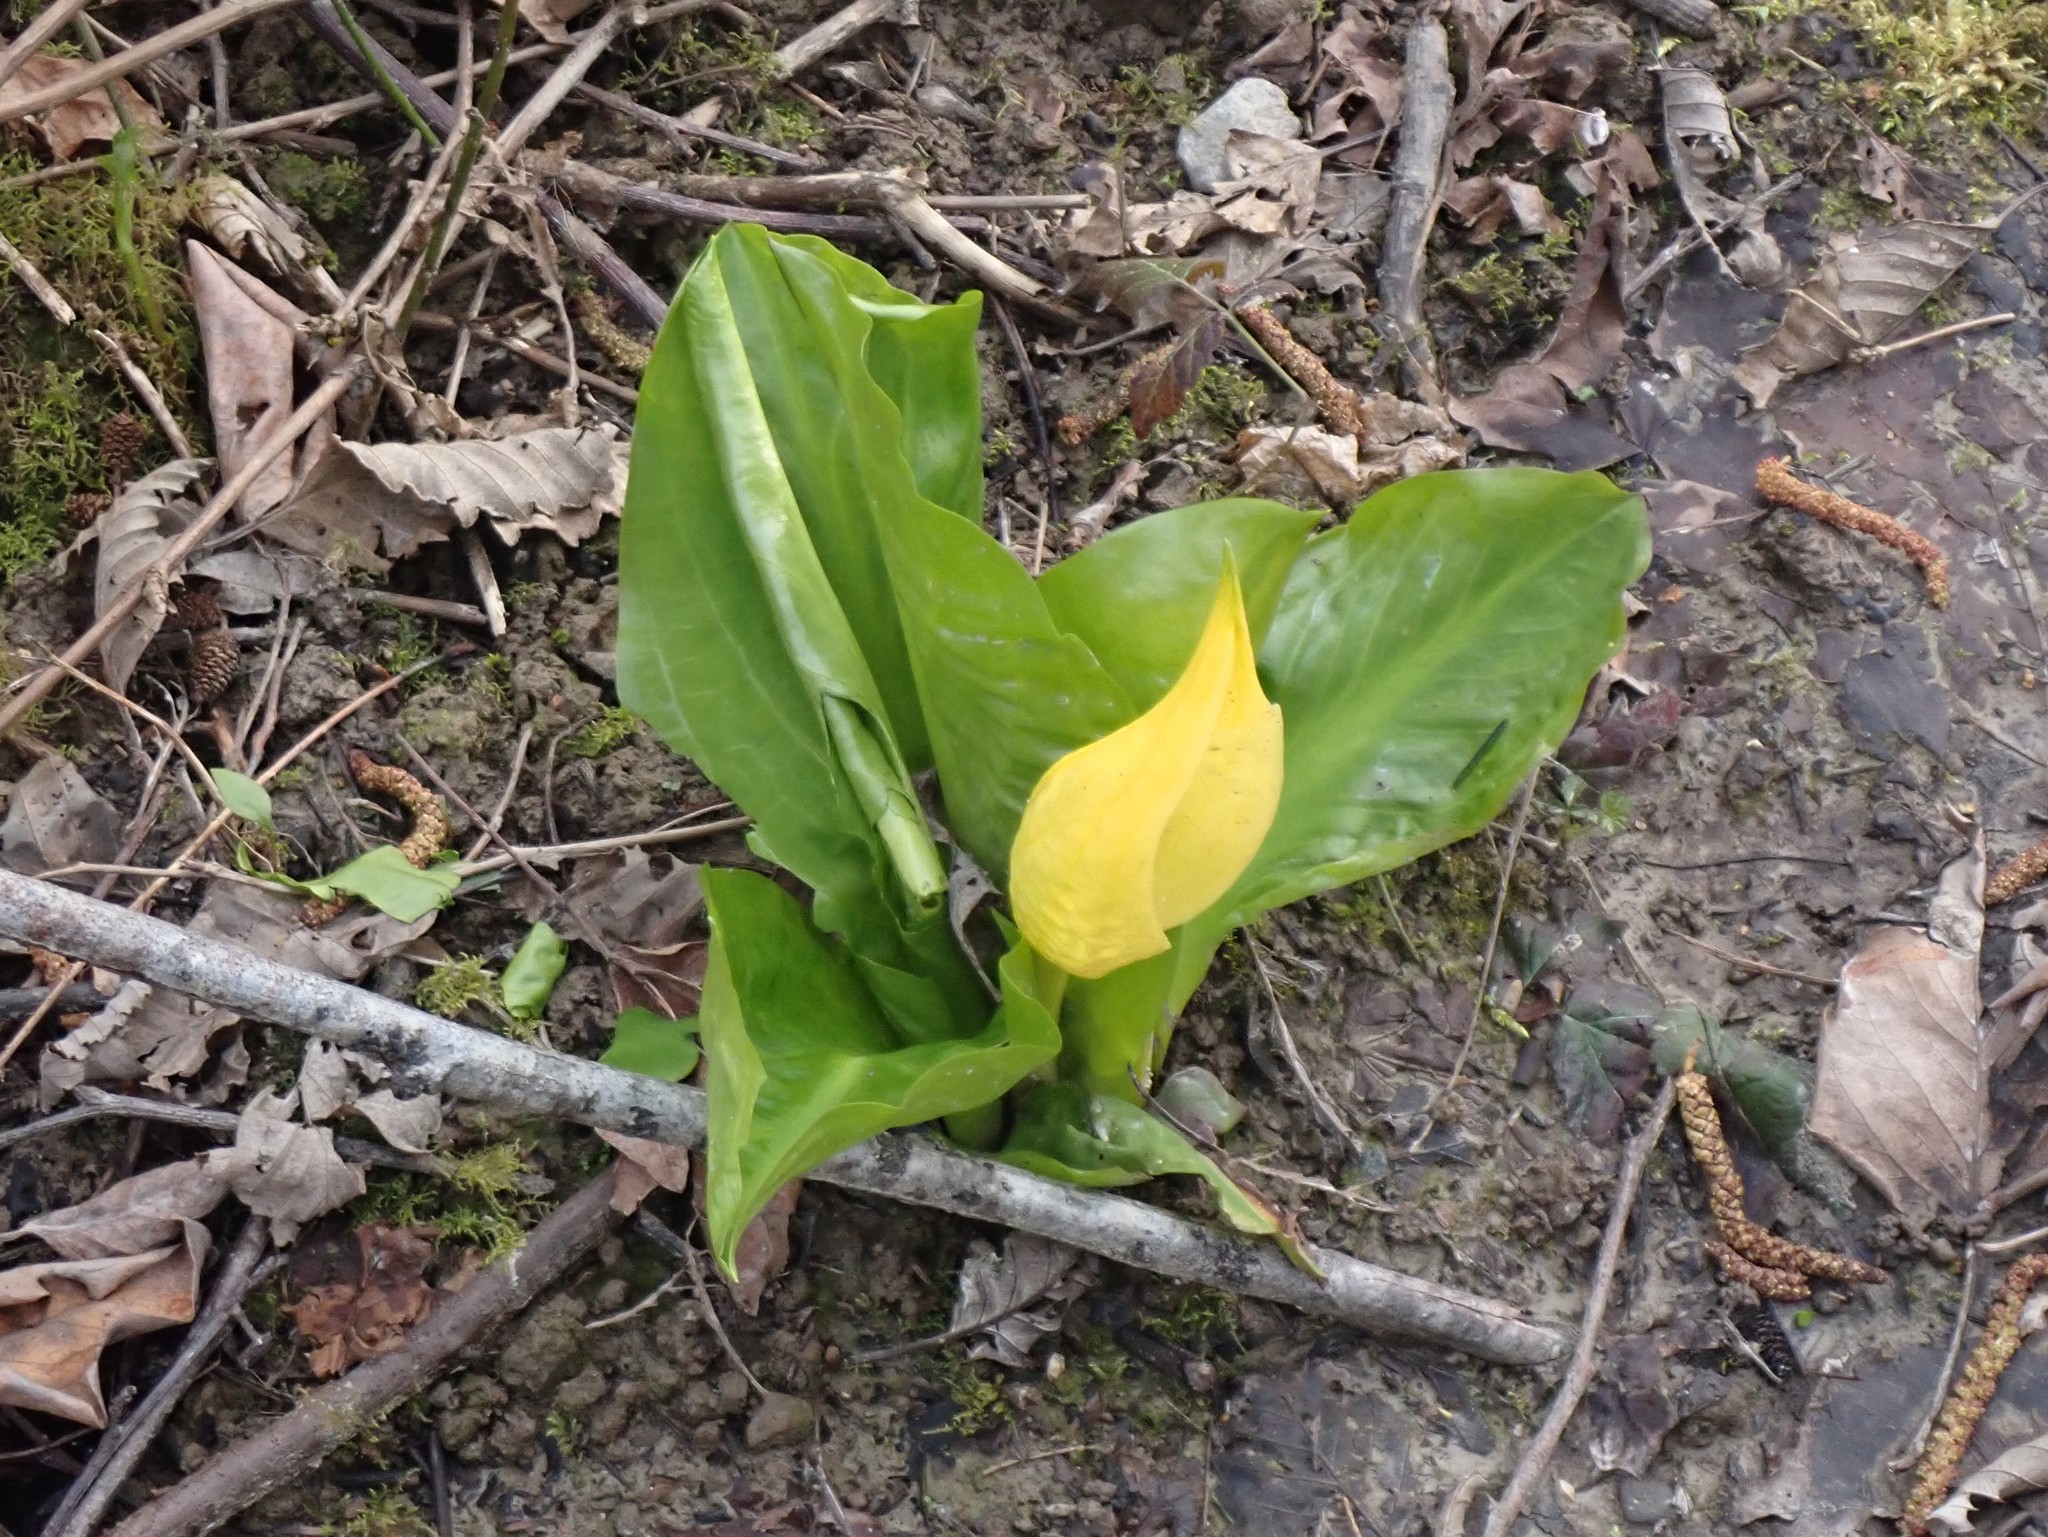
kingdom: Plantae
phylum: Tracheophyta
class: Liliopsida
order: Alismatales
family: Araceae
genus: Lysichiton
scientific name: Lysichiton americanus
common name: American skunk cabbage
